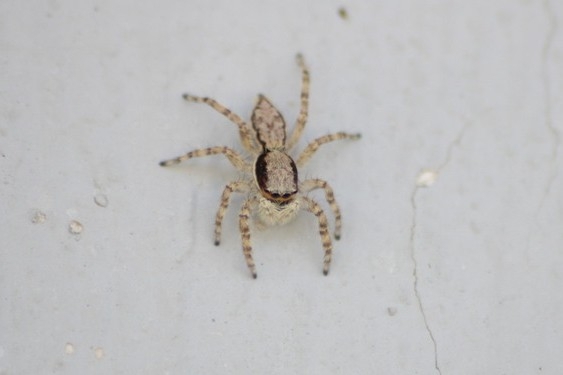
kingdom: Animalia
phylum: Arthropoda
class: Arachnida
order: Araneae
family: Salticidae
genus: Menemerus
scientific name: Menemerus bivittatus
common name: Gray wall jumper
